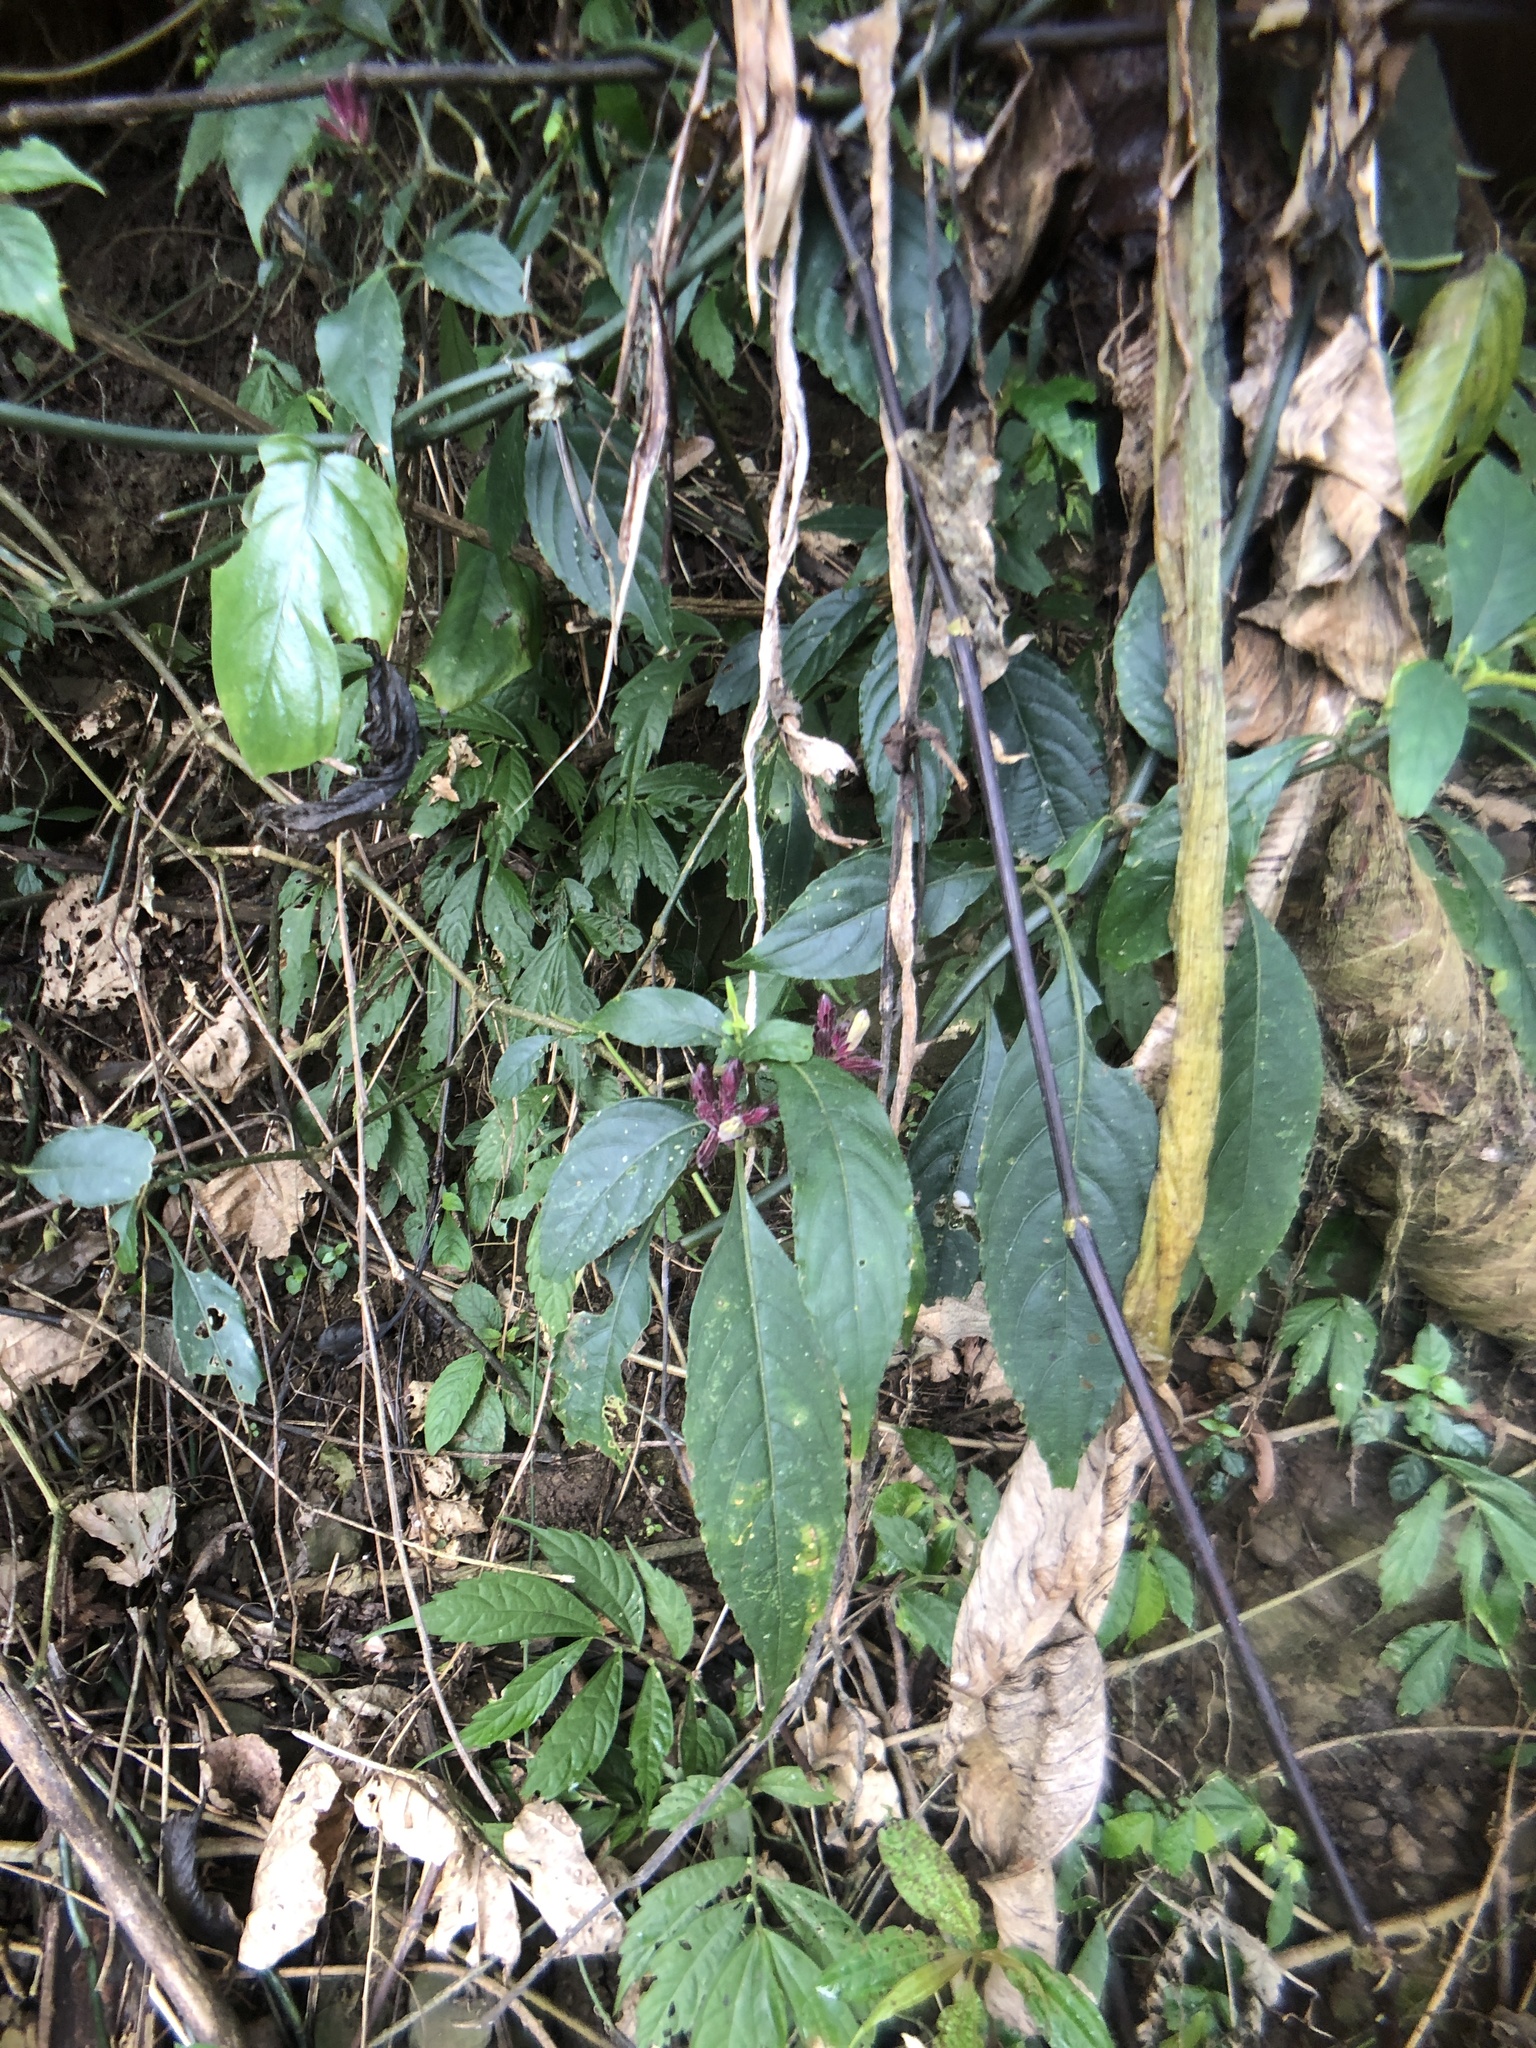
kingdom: Plantae
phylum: Tracheophyta
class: Magnoliopsida
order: Lamiales
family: Acanthaceae
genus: Strobilanthes
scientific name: Strobilanthes flexicaulis
